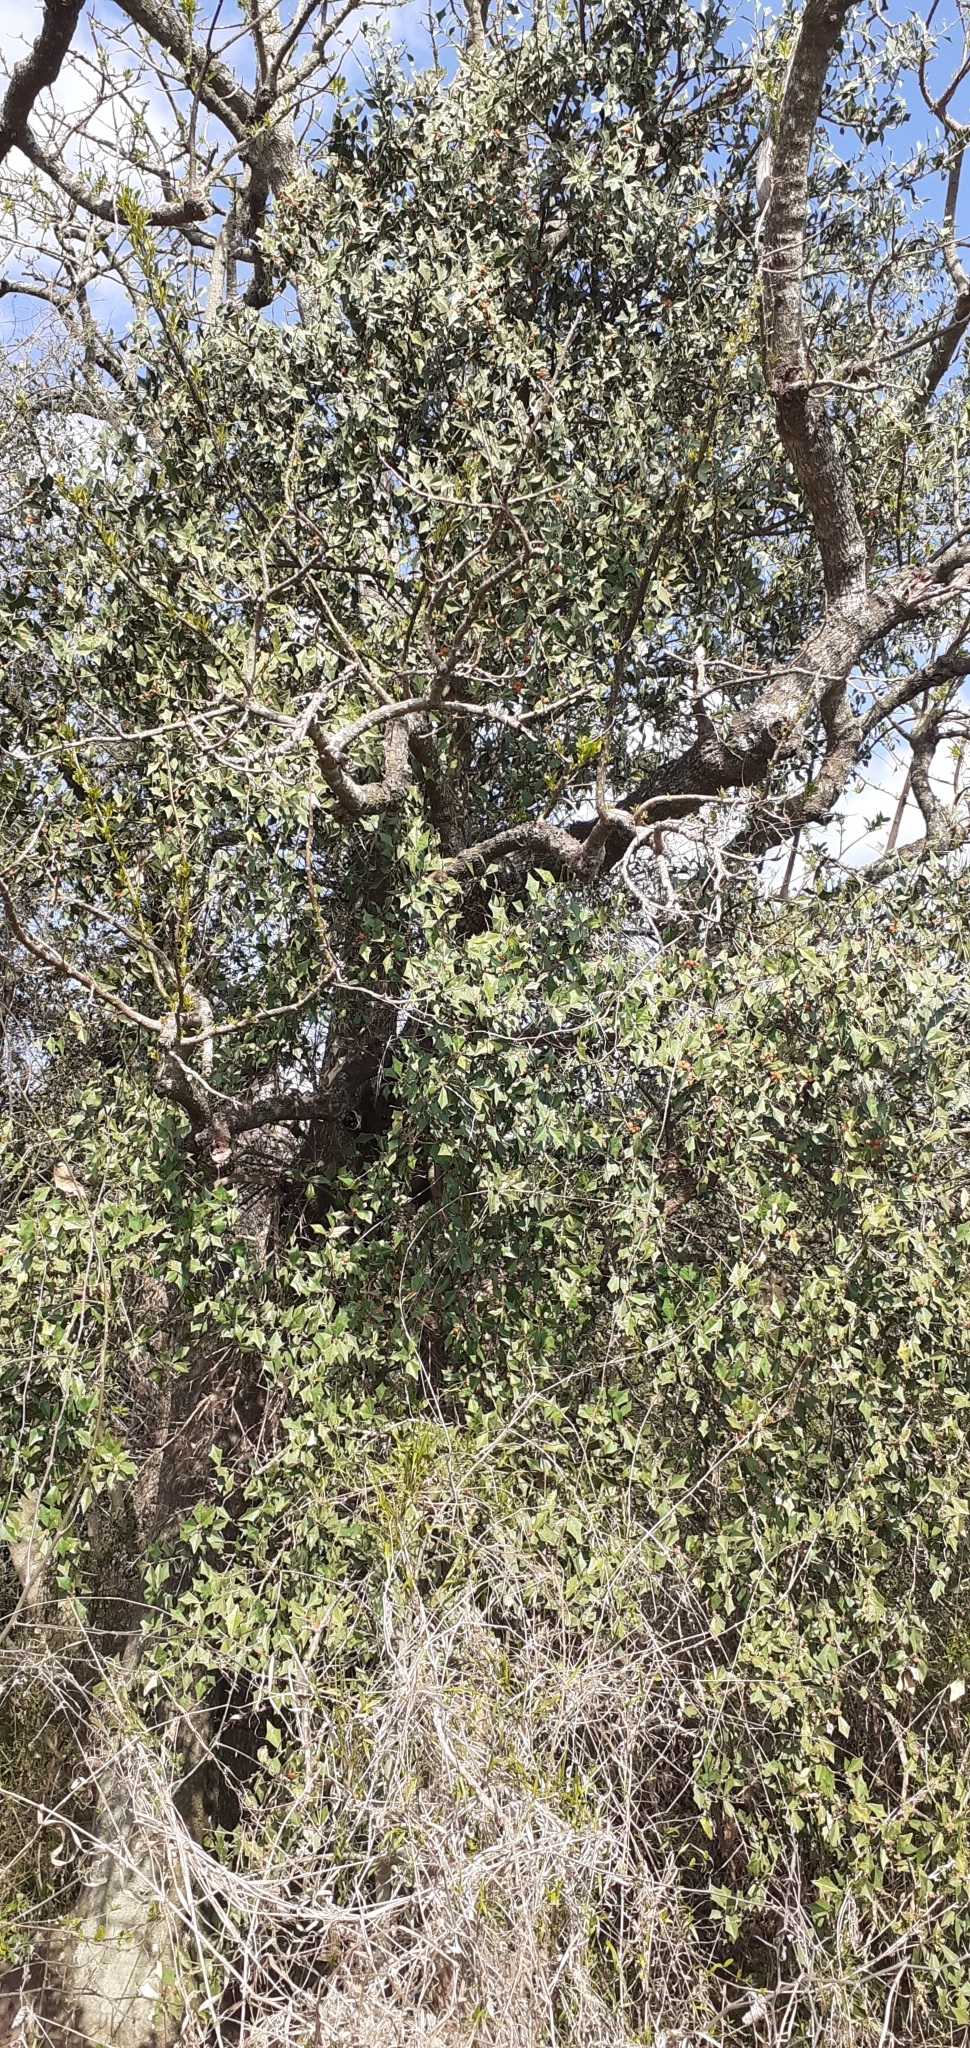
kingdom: Plantae
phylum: Tracheophyta
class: Magnoliopsida
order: Santalales
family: Cervantesiaceae
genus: Jodina
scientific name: Jodina rhombifolia
